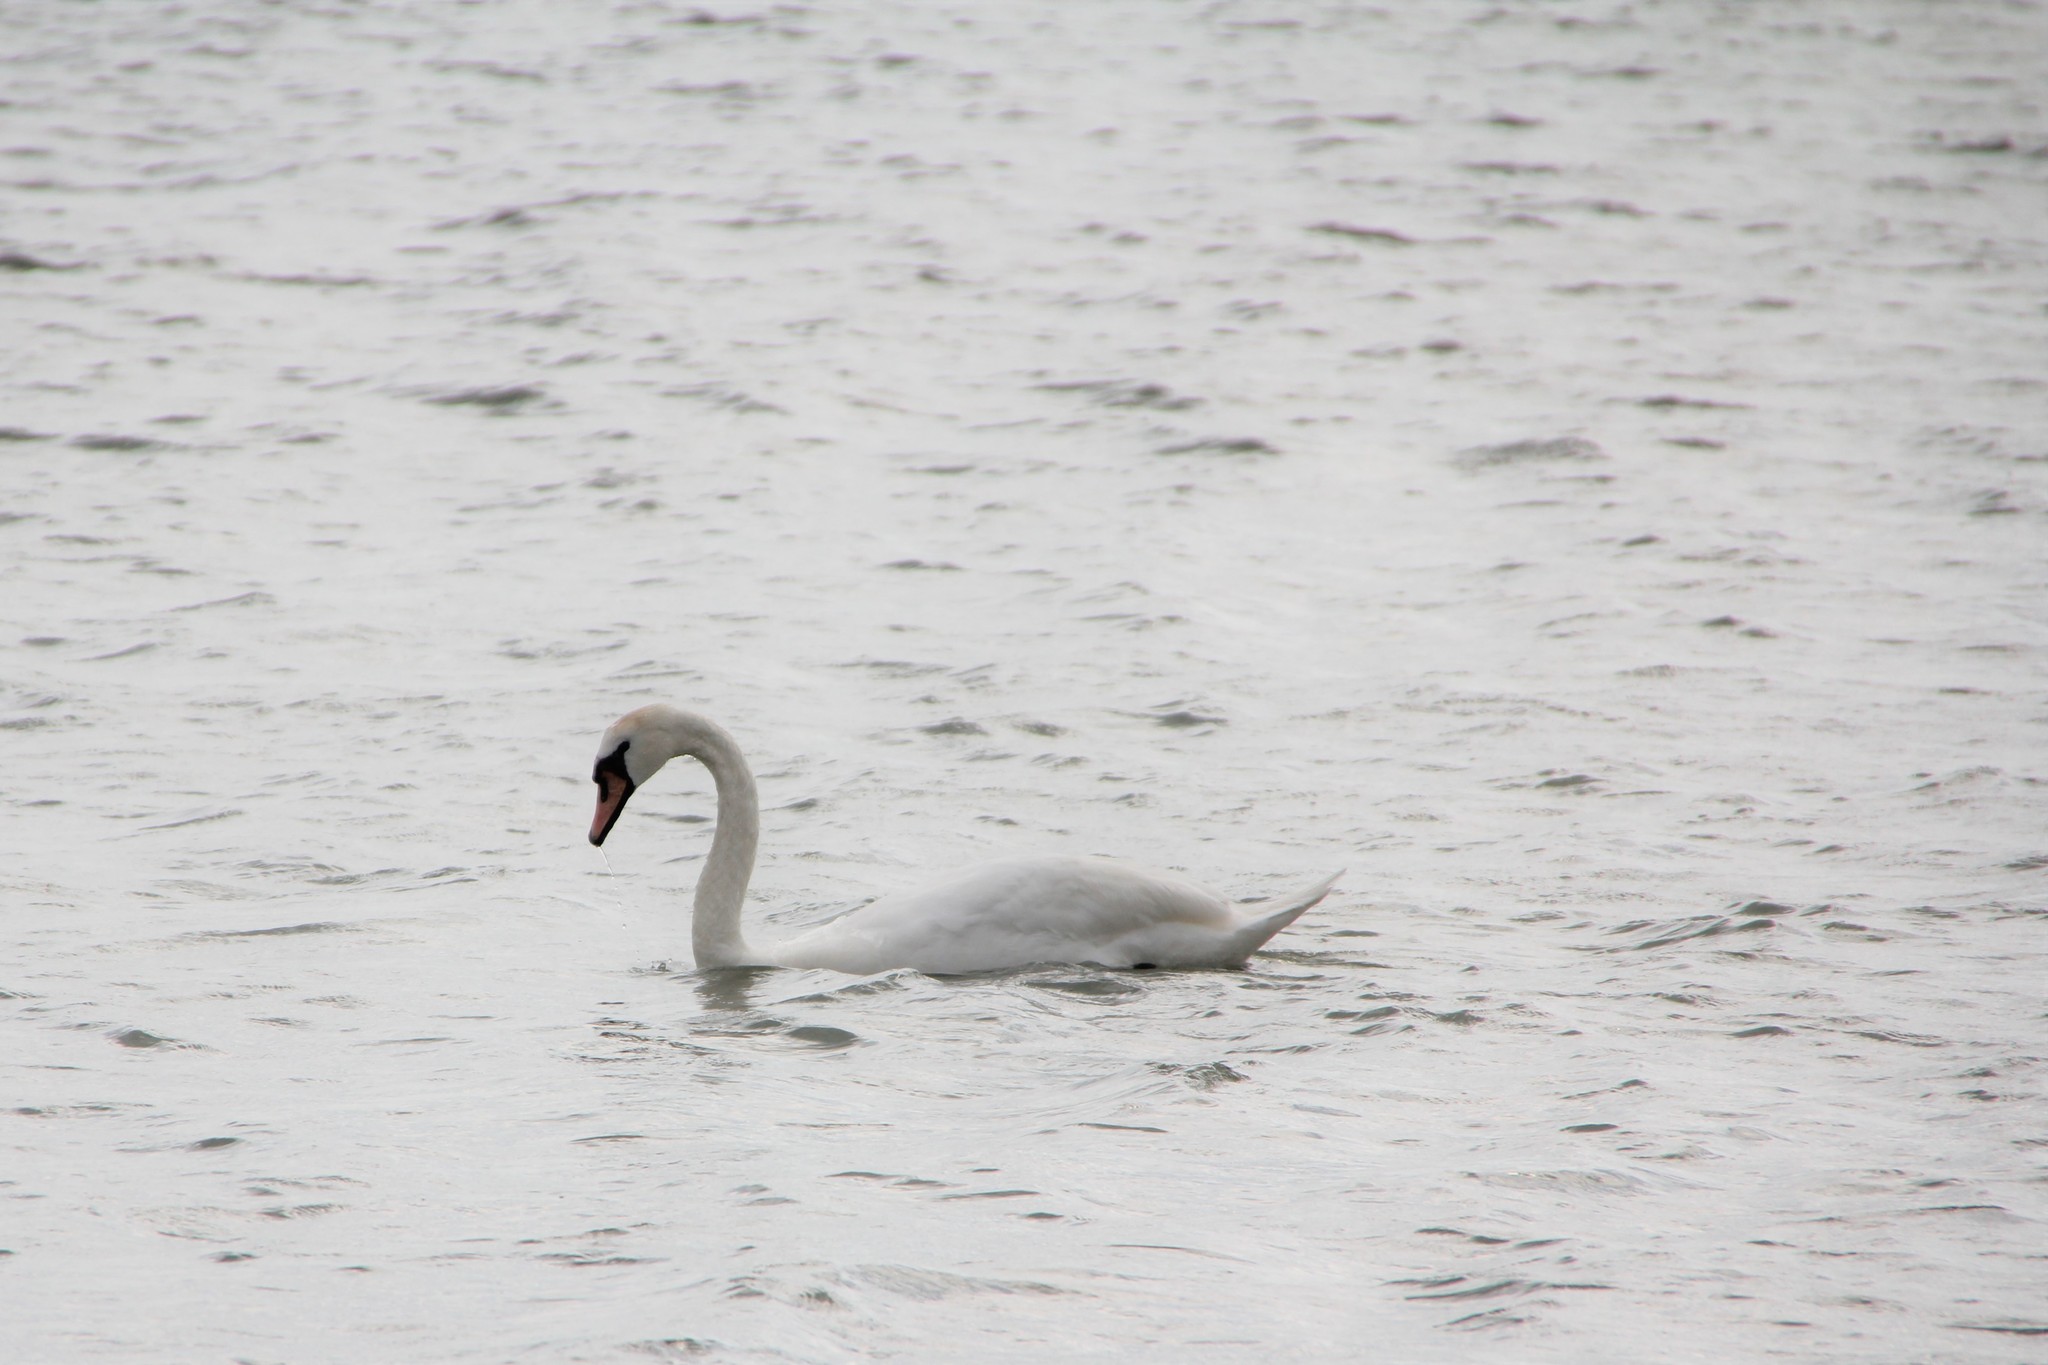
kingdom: Animalia
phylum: Chordata
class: Aves
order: Anseriformes
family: Anatidae
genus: Cygnus
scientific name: Cygnus olor
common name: Mute swan
